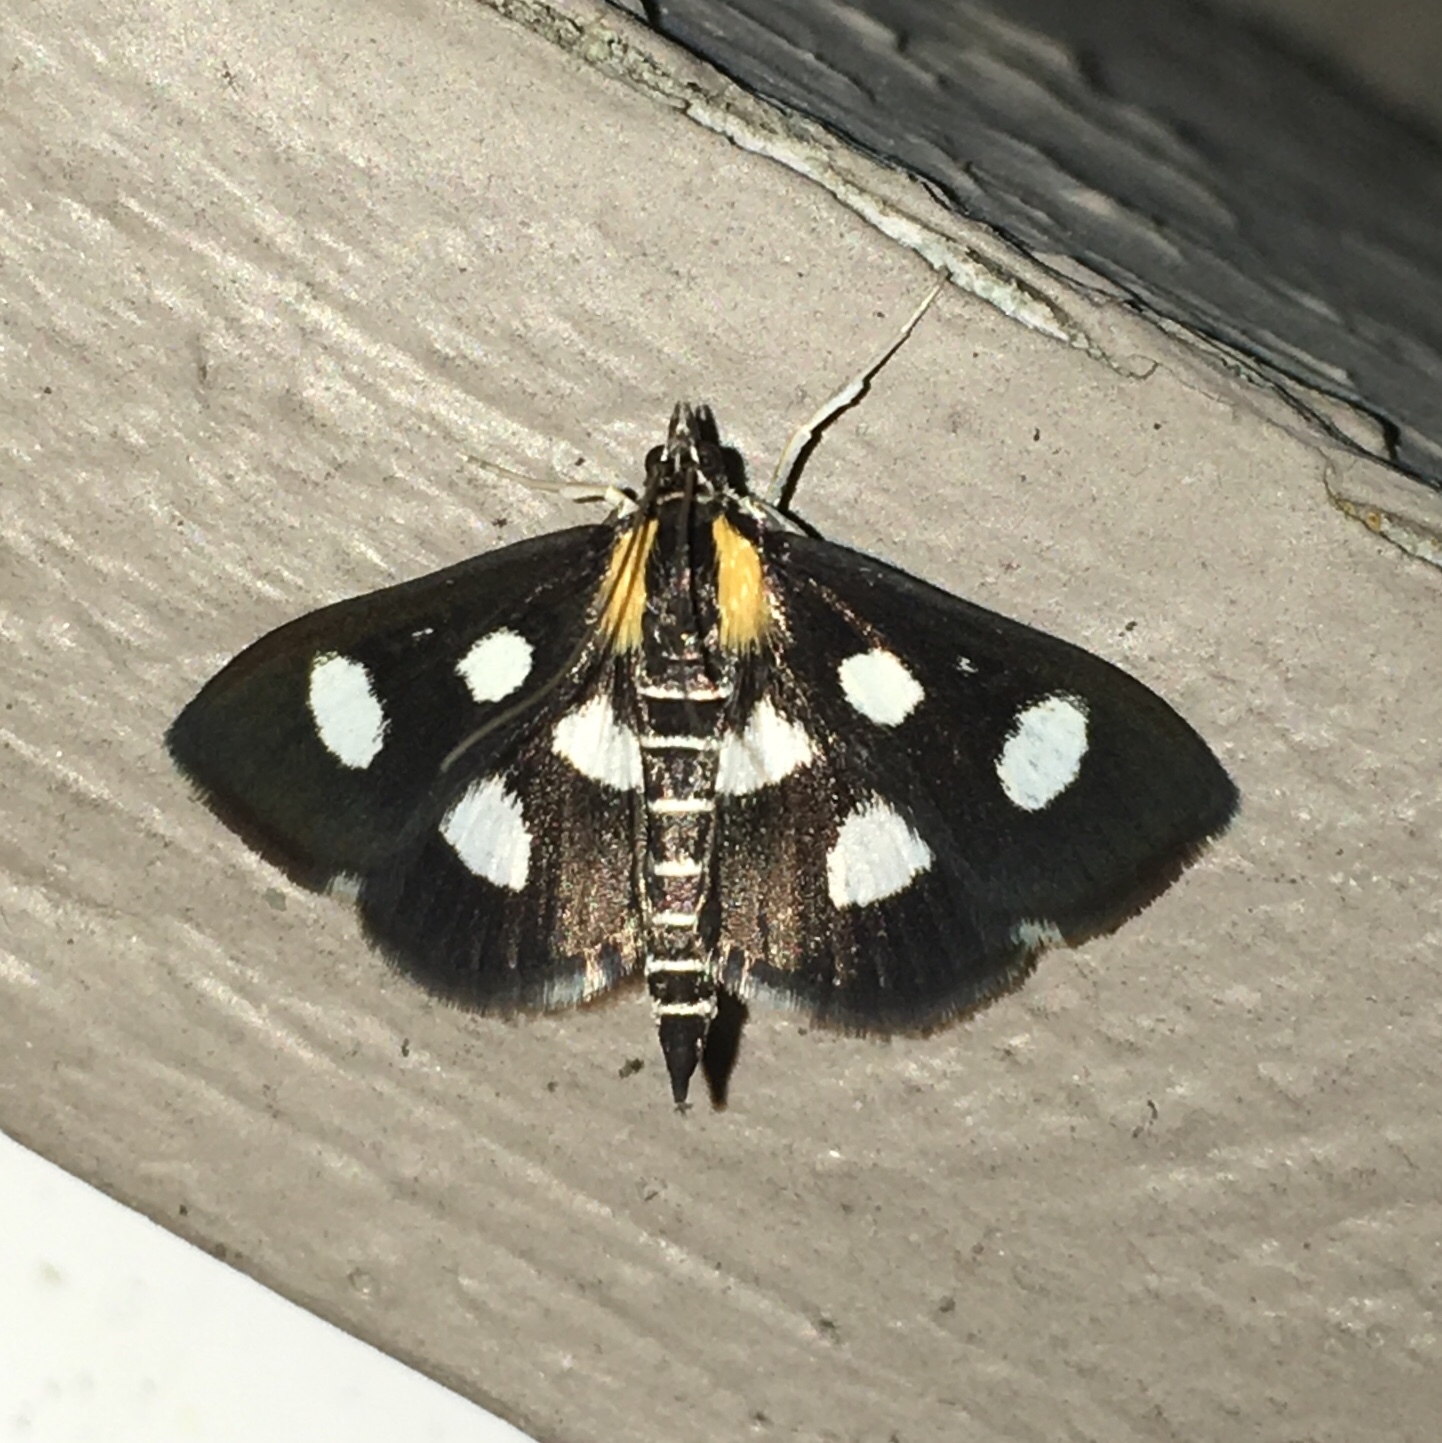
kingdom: Animalia
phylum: Arthropoda
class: Insecta
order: Lepidoptera
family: Crambidae
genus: Anania
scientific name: Anania funebris
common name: White-spotted sable moth
